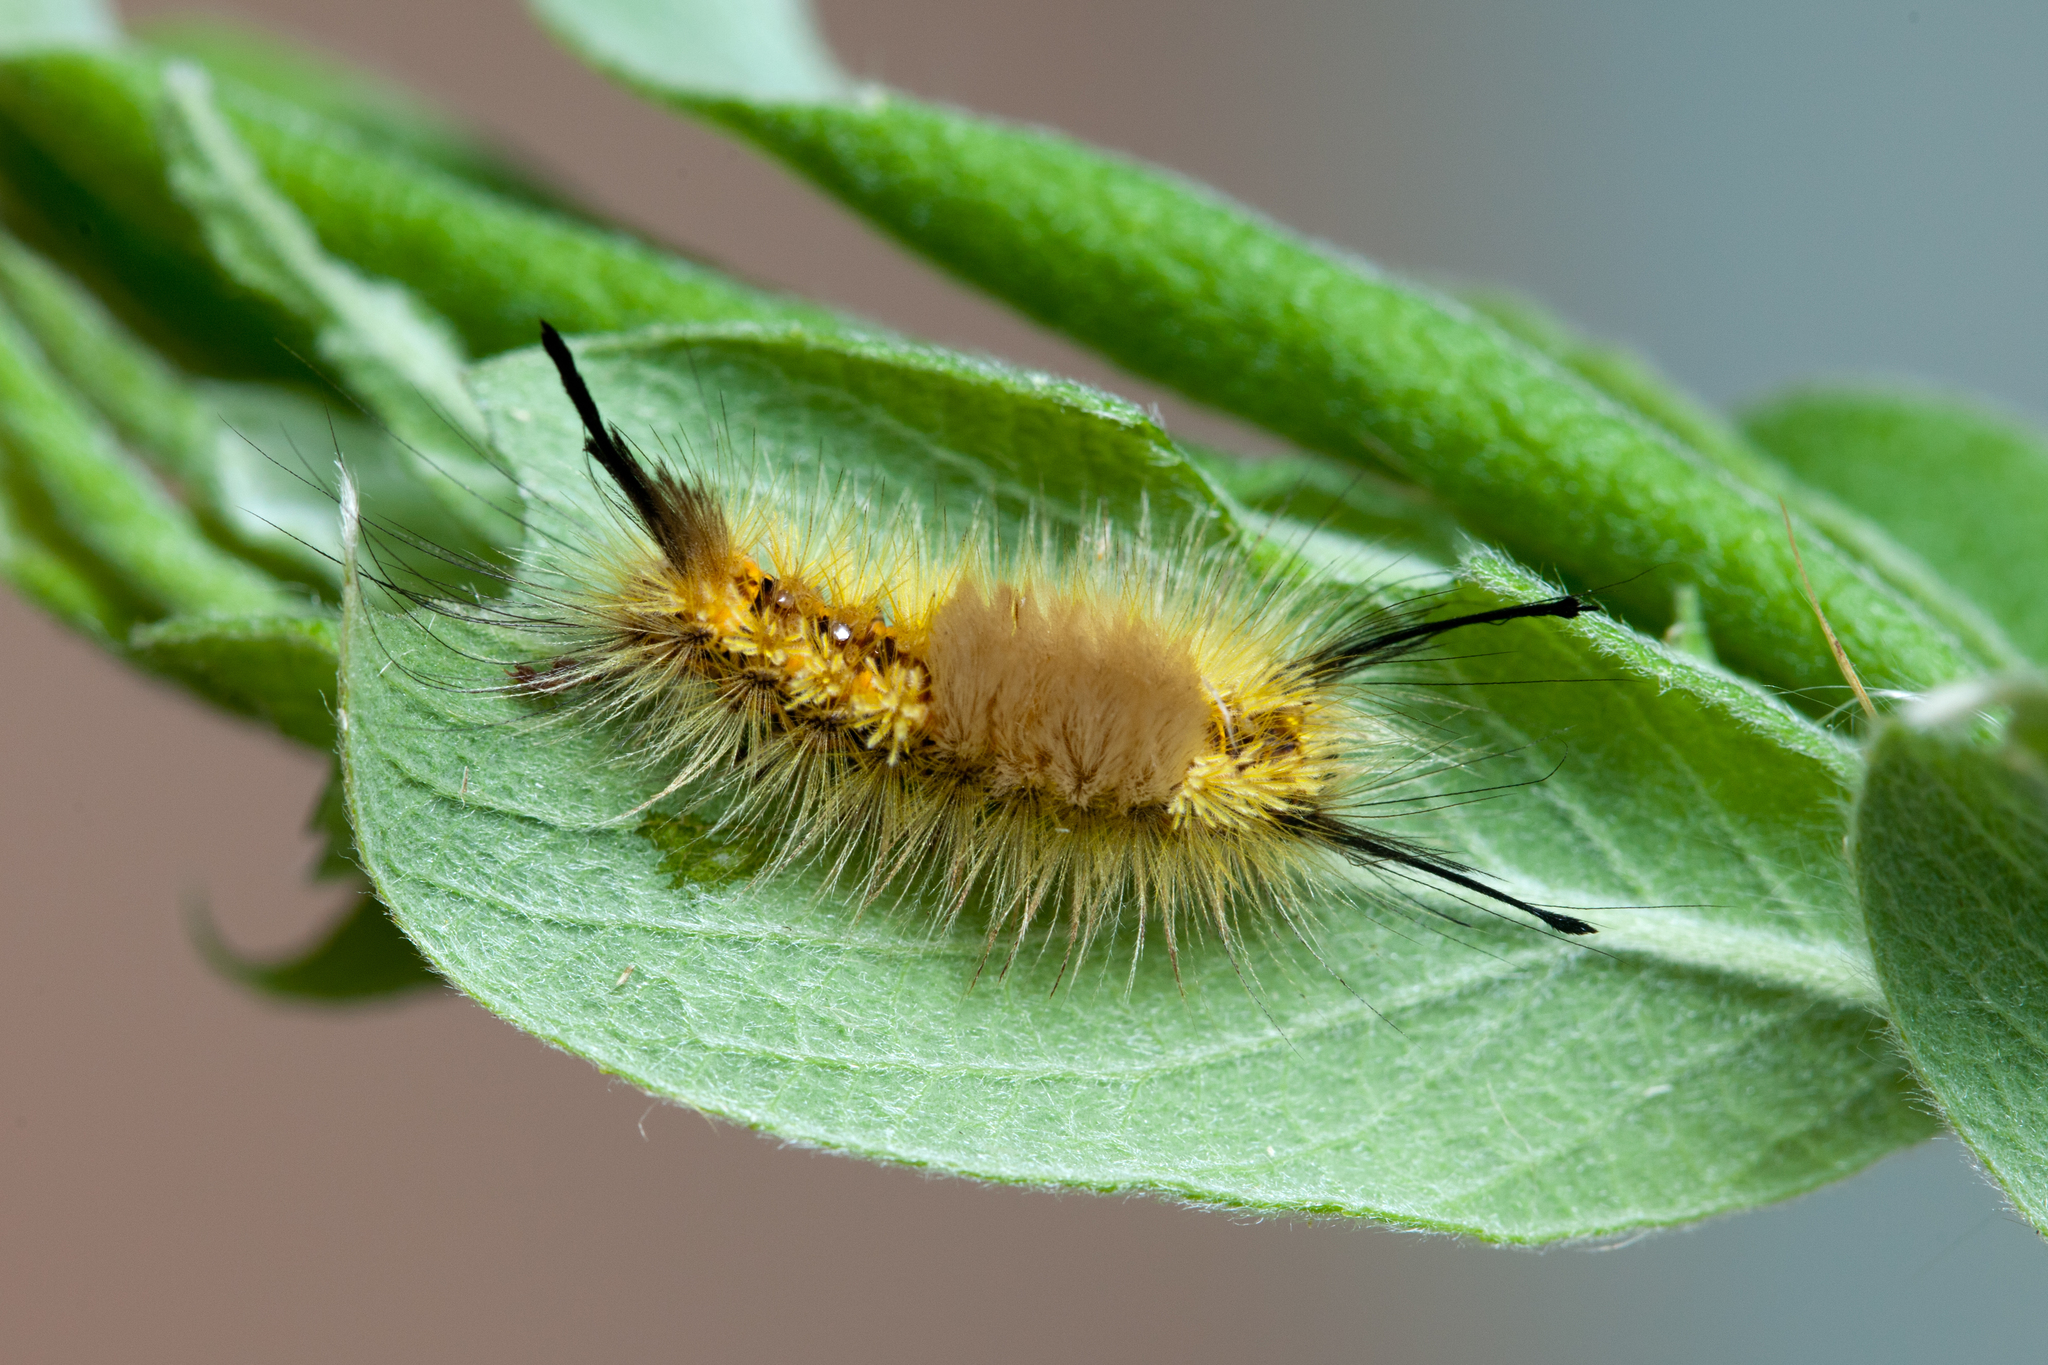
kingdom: Animalia
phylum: Arthropoda
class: Insecta
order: Lepidoptera
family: Erebidae
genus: Orgyia
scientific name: Orgyia recens
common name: Scarce vapourer
